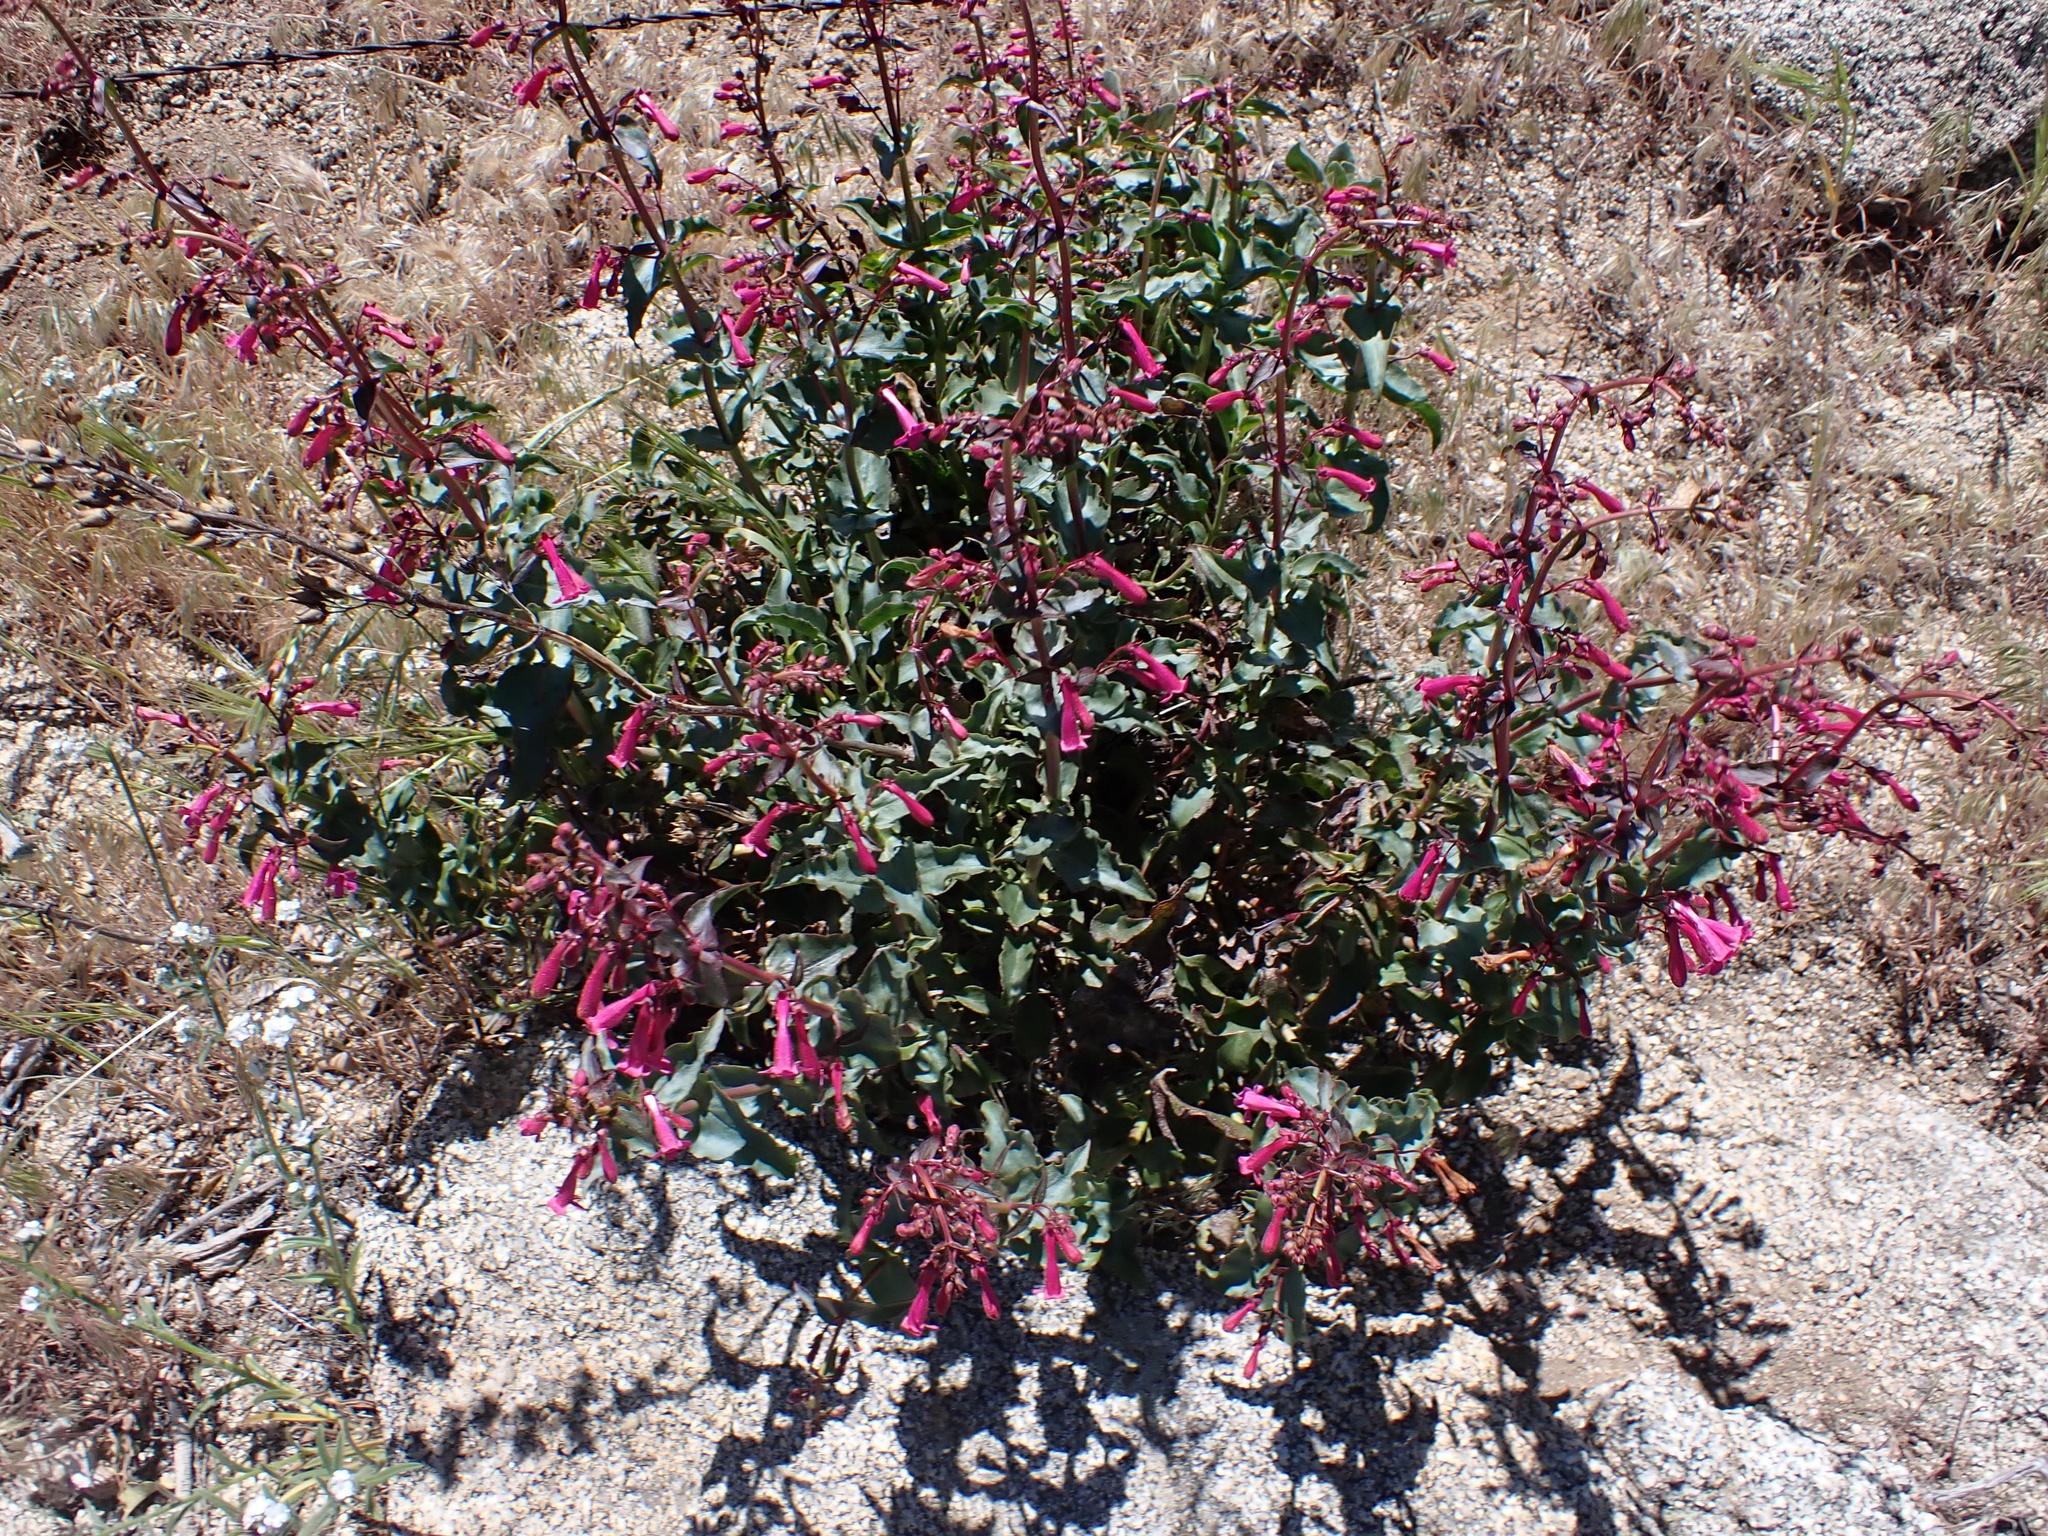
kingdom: Plantae
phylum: Tracheophyta
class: Magnoliopsida
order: Lamiales
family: Plantaginaceae
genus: Penstemon
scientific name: Penstemon clevelandii
